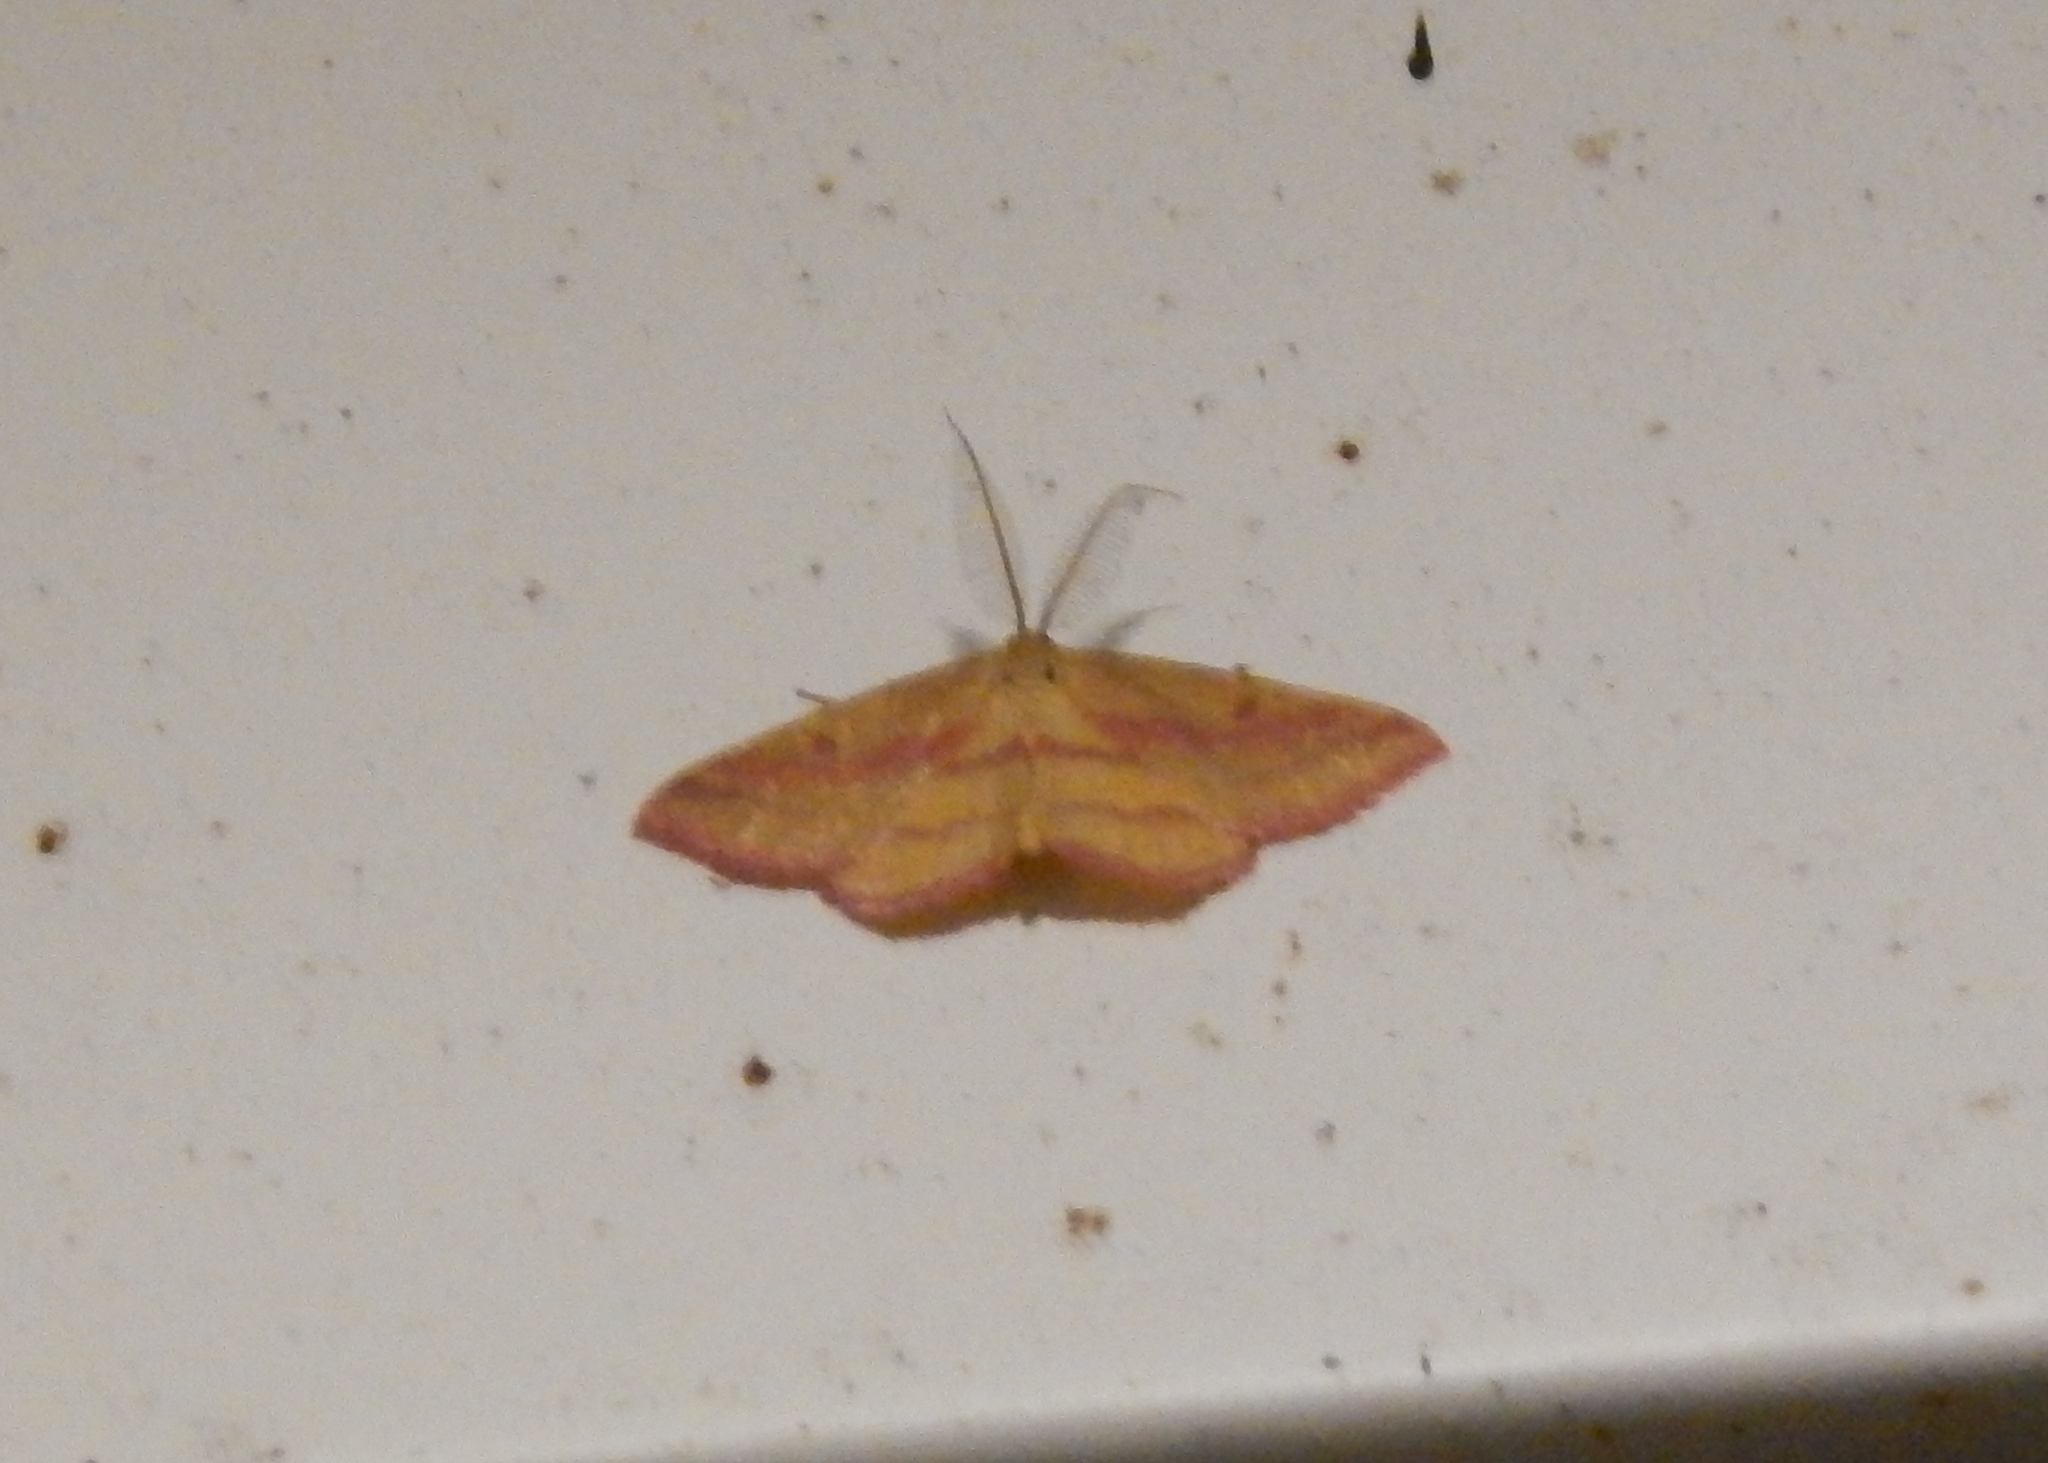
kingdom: Animalia
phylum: Arthropoda
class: Insecta
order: Lepidoptera
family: Geometridae
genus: Haematopis
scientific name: Haematopis grataria
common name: Chickweed geometer
